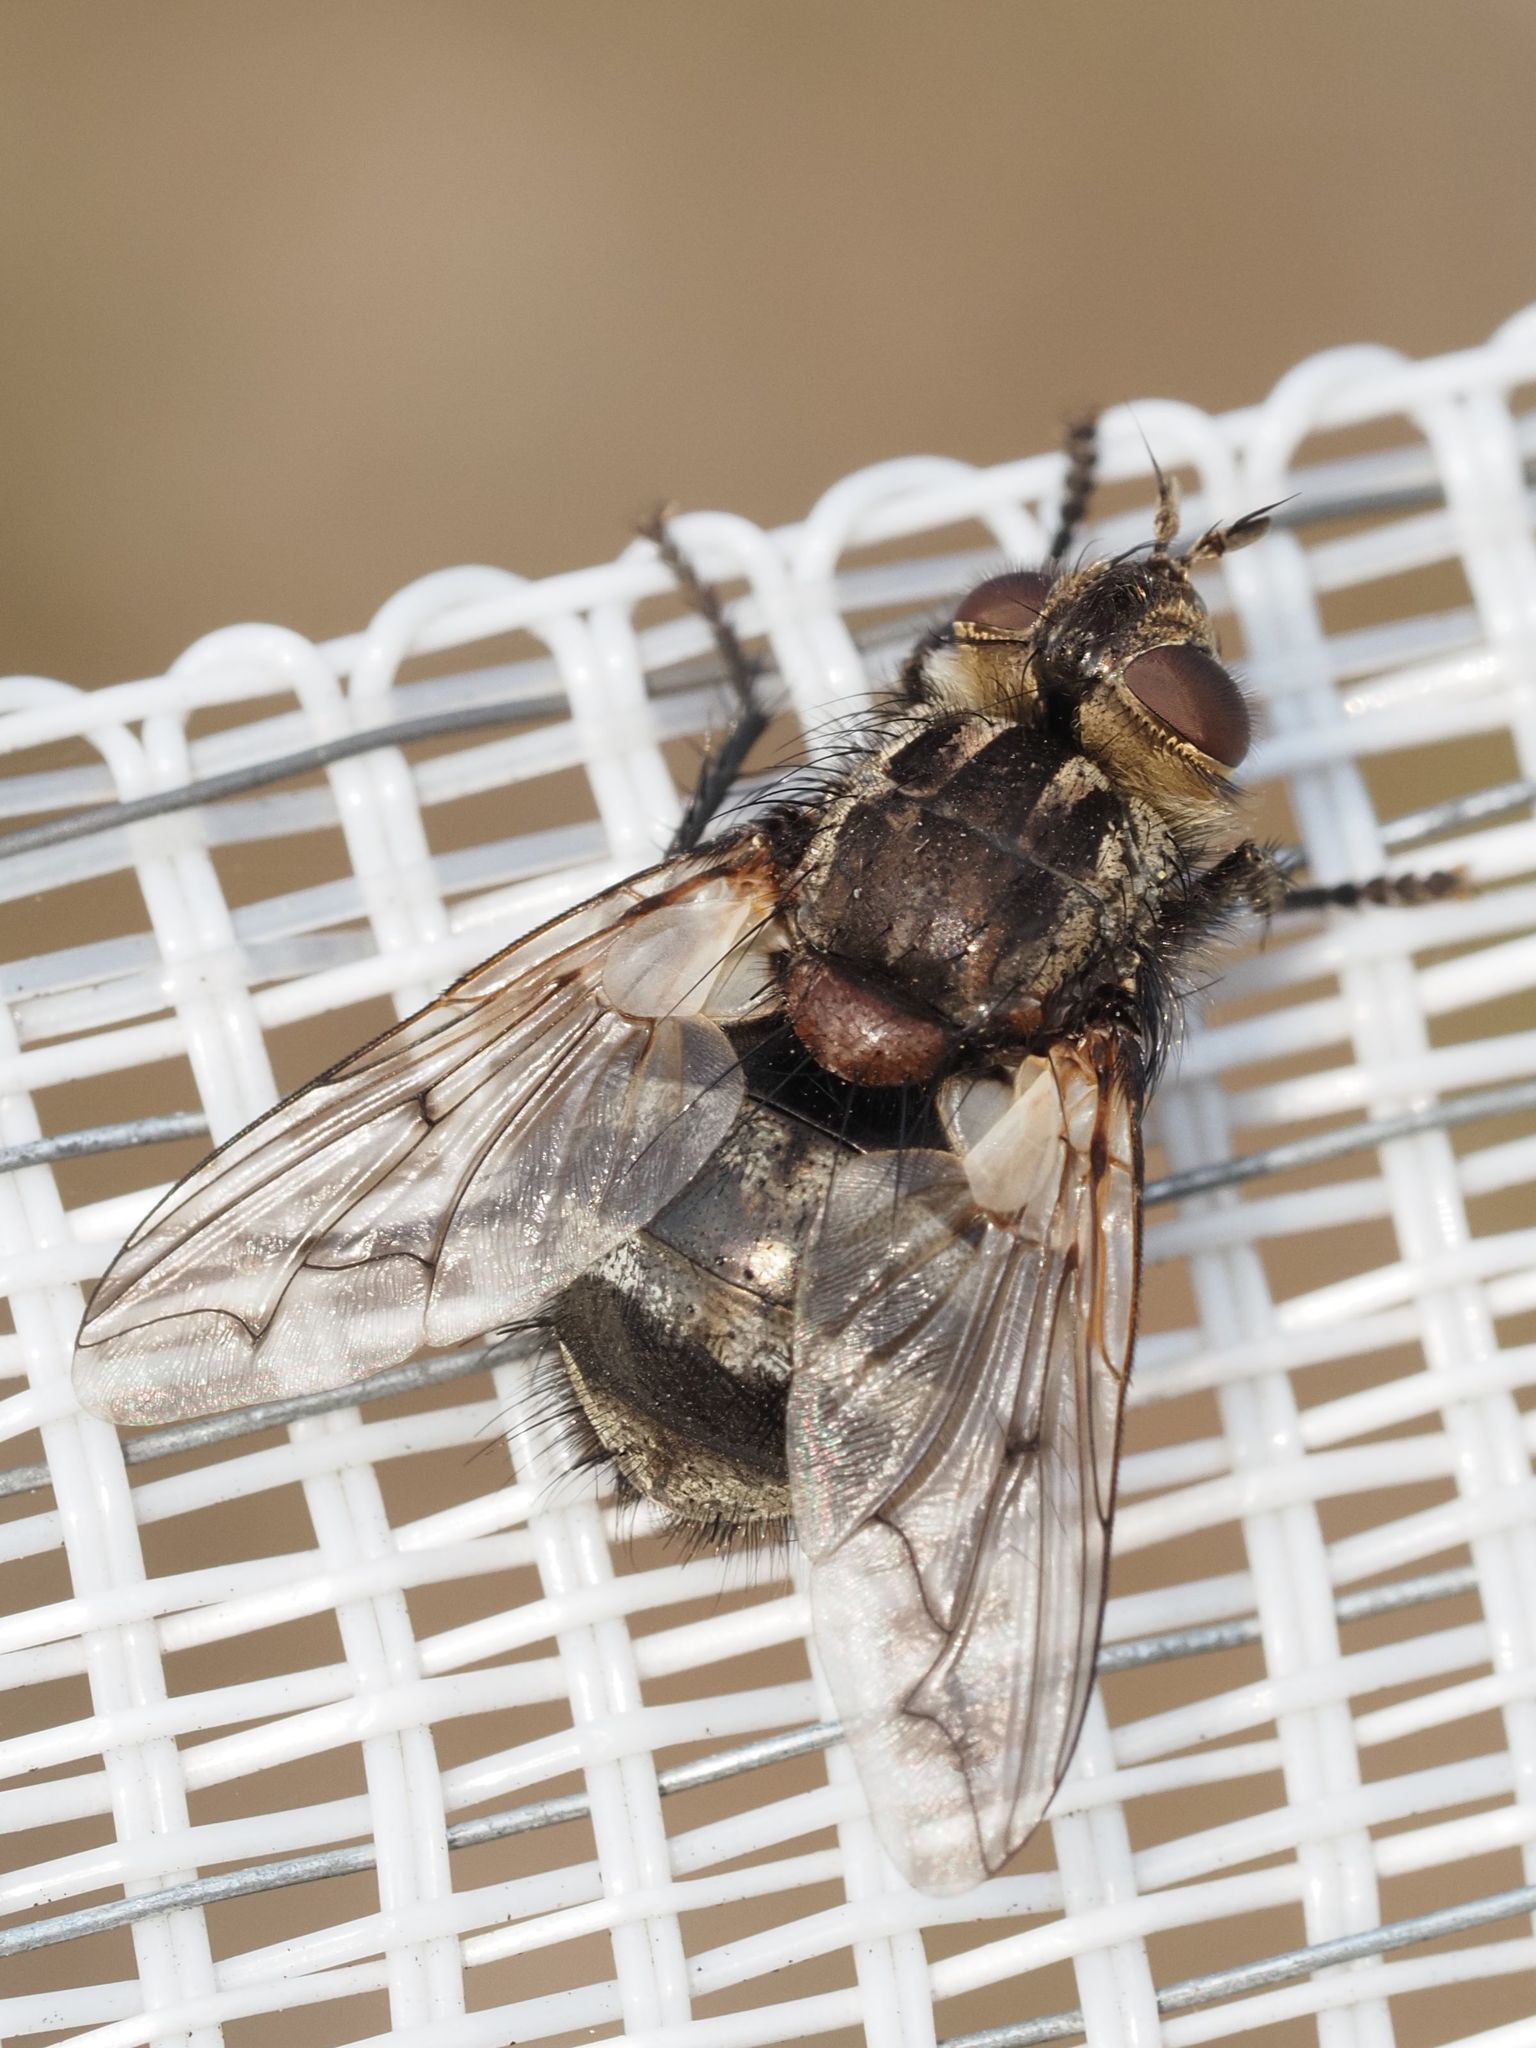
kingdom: Animalia
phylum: Arthropoda
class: Insecta
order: Diptera
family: Tachinidae
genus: Panzeria
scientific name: Panzeria puparum
